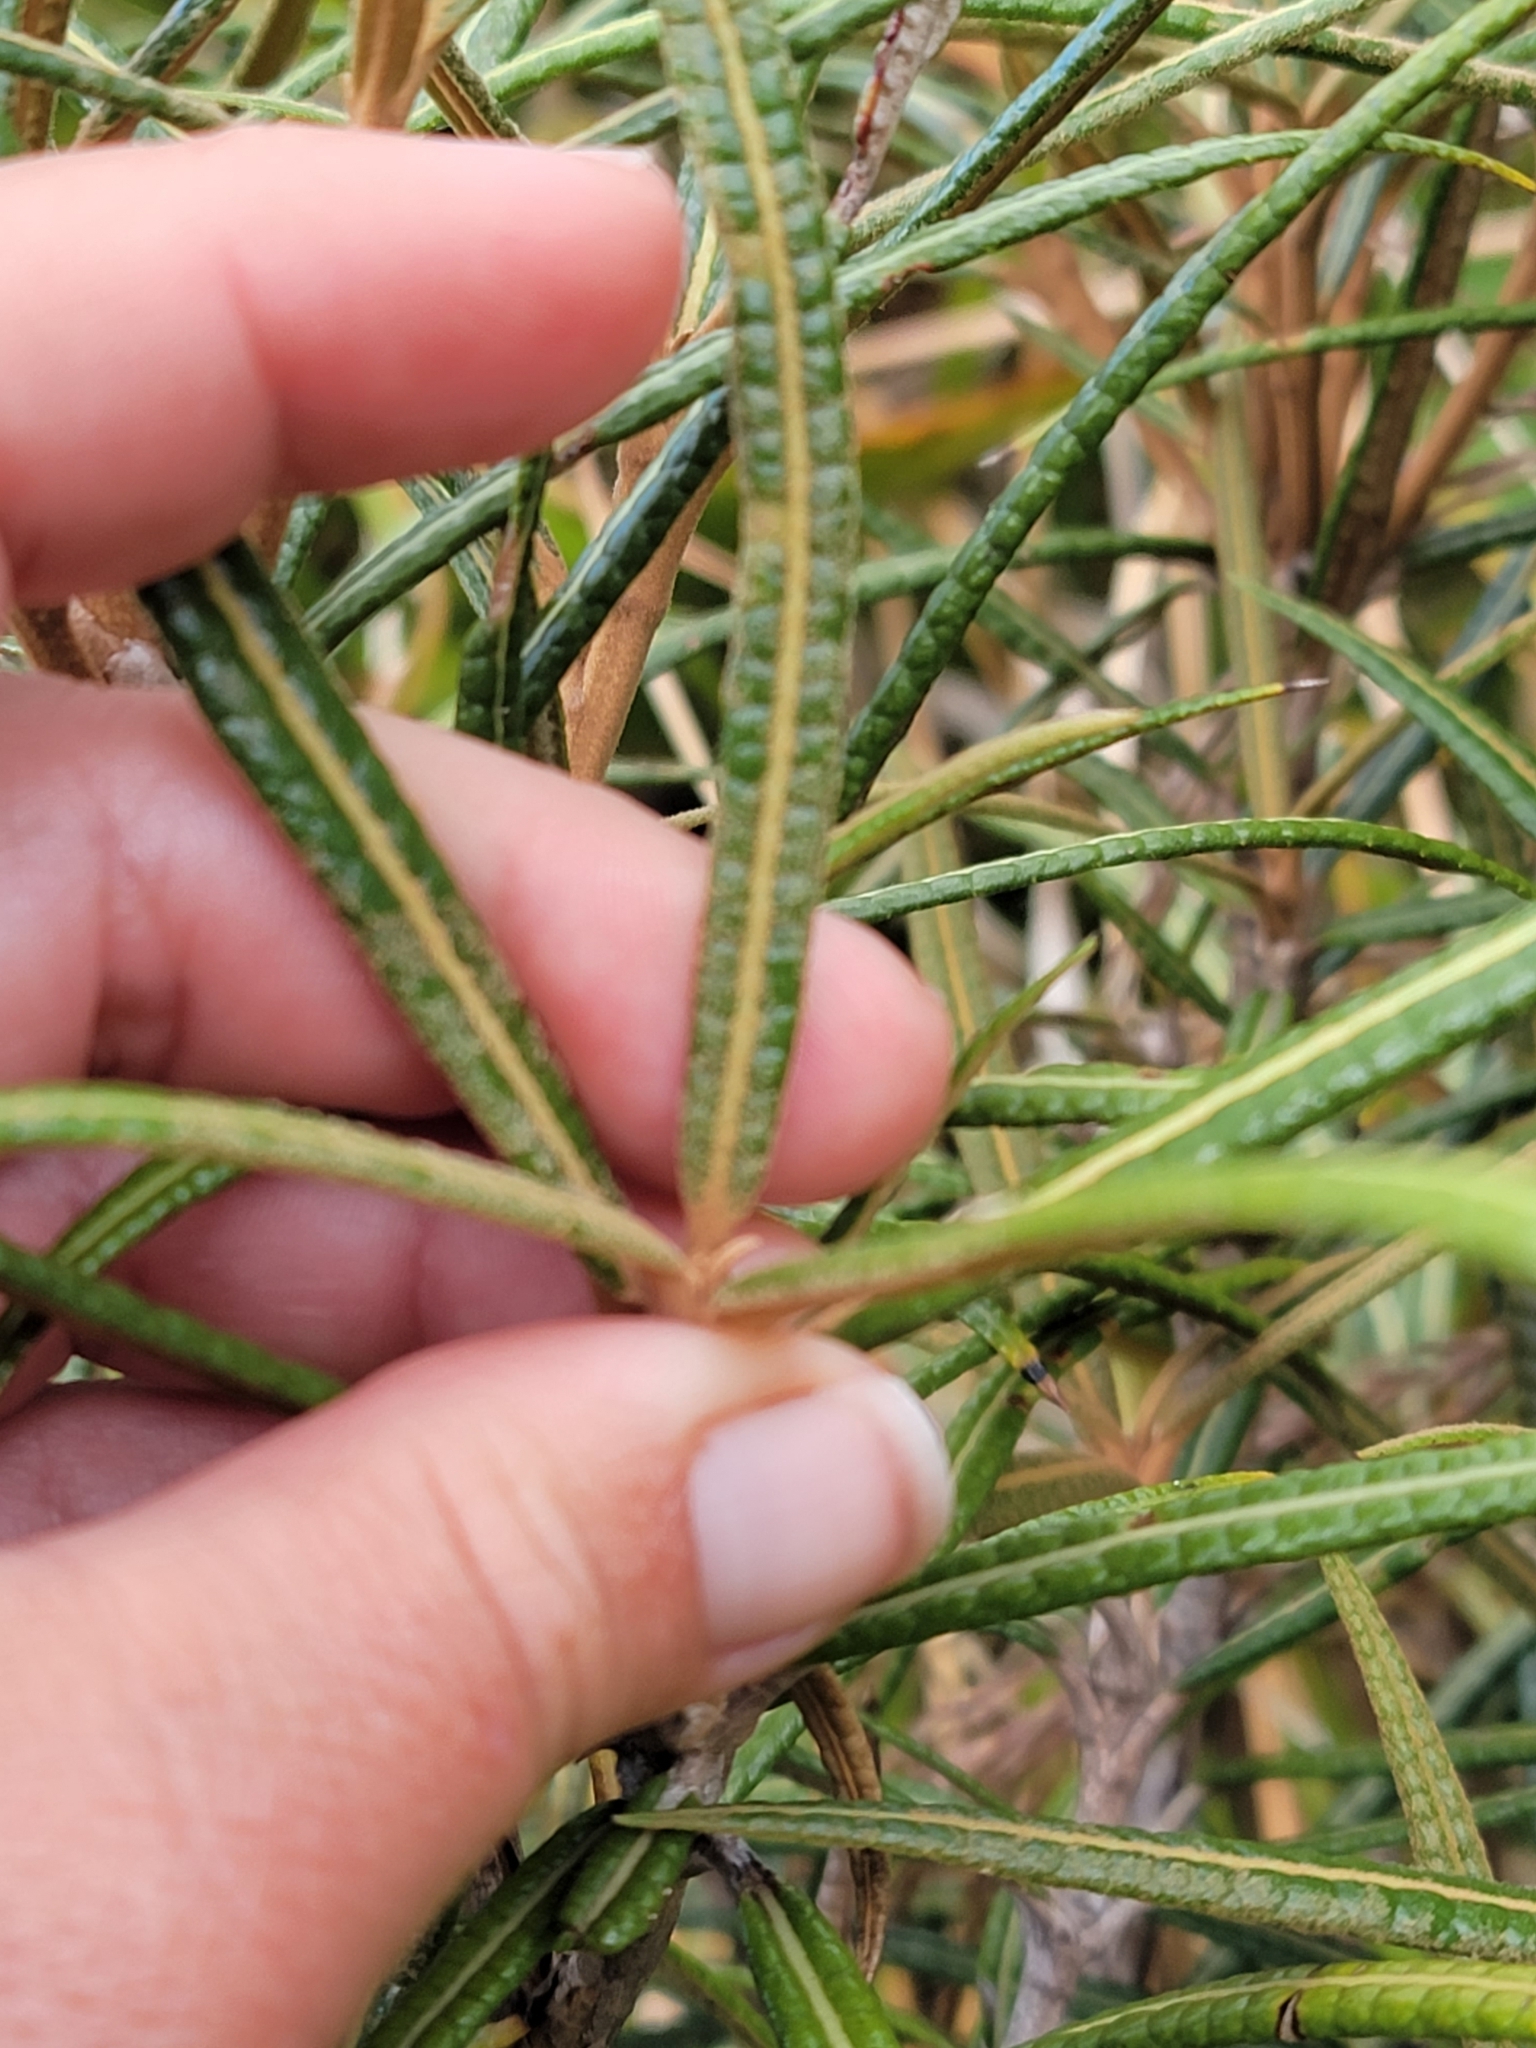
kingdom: Plantae
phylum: Tracheophyta
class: Magnoliopsida
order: Asterales
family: Asteraceae
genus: Olearia
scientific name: Olearia lacunosa
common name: Lancewood tree daisy
